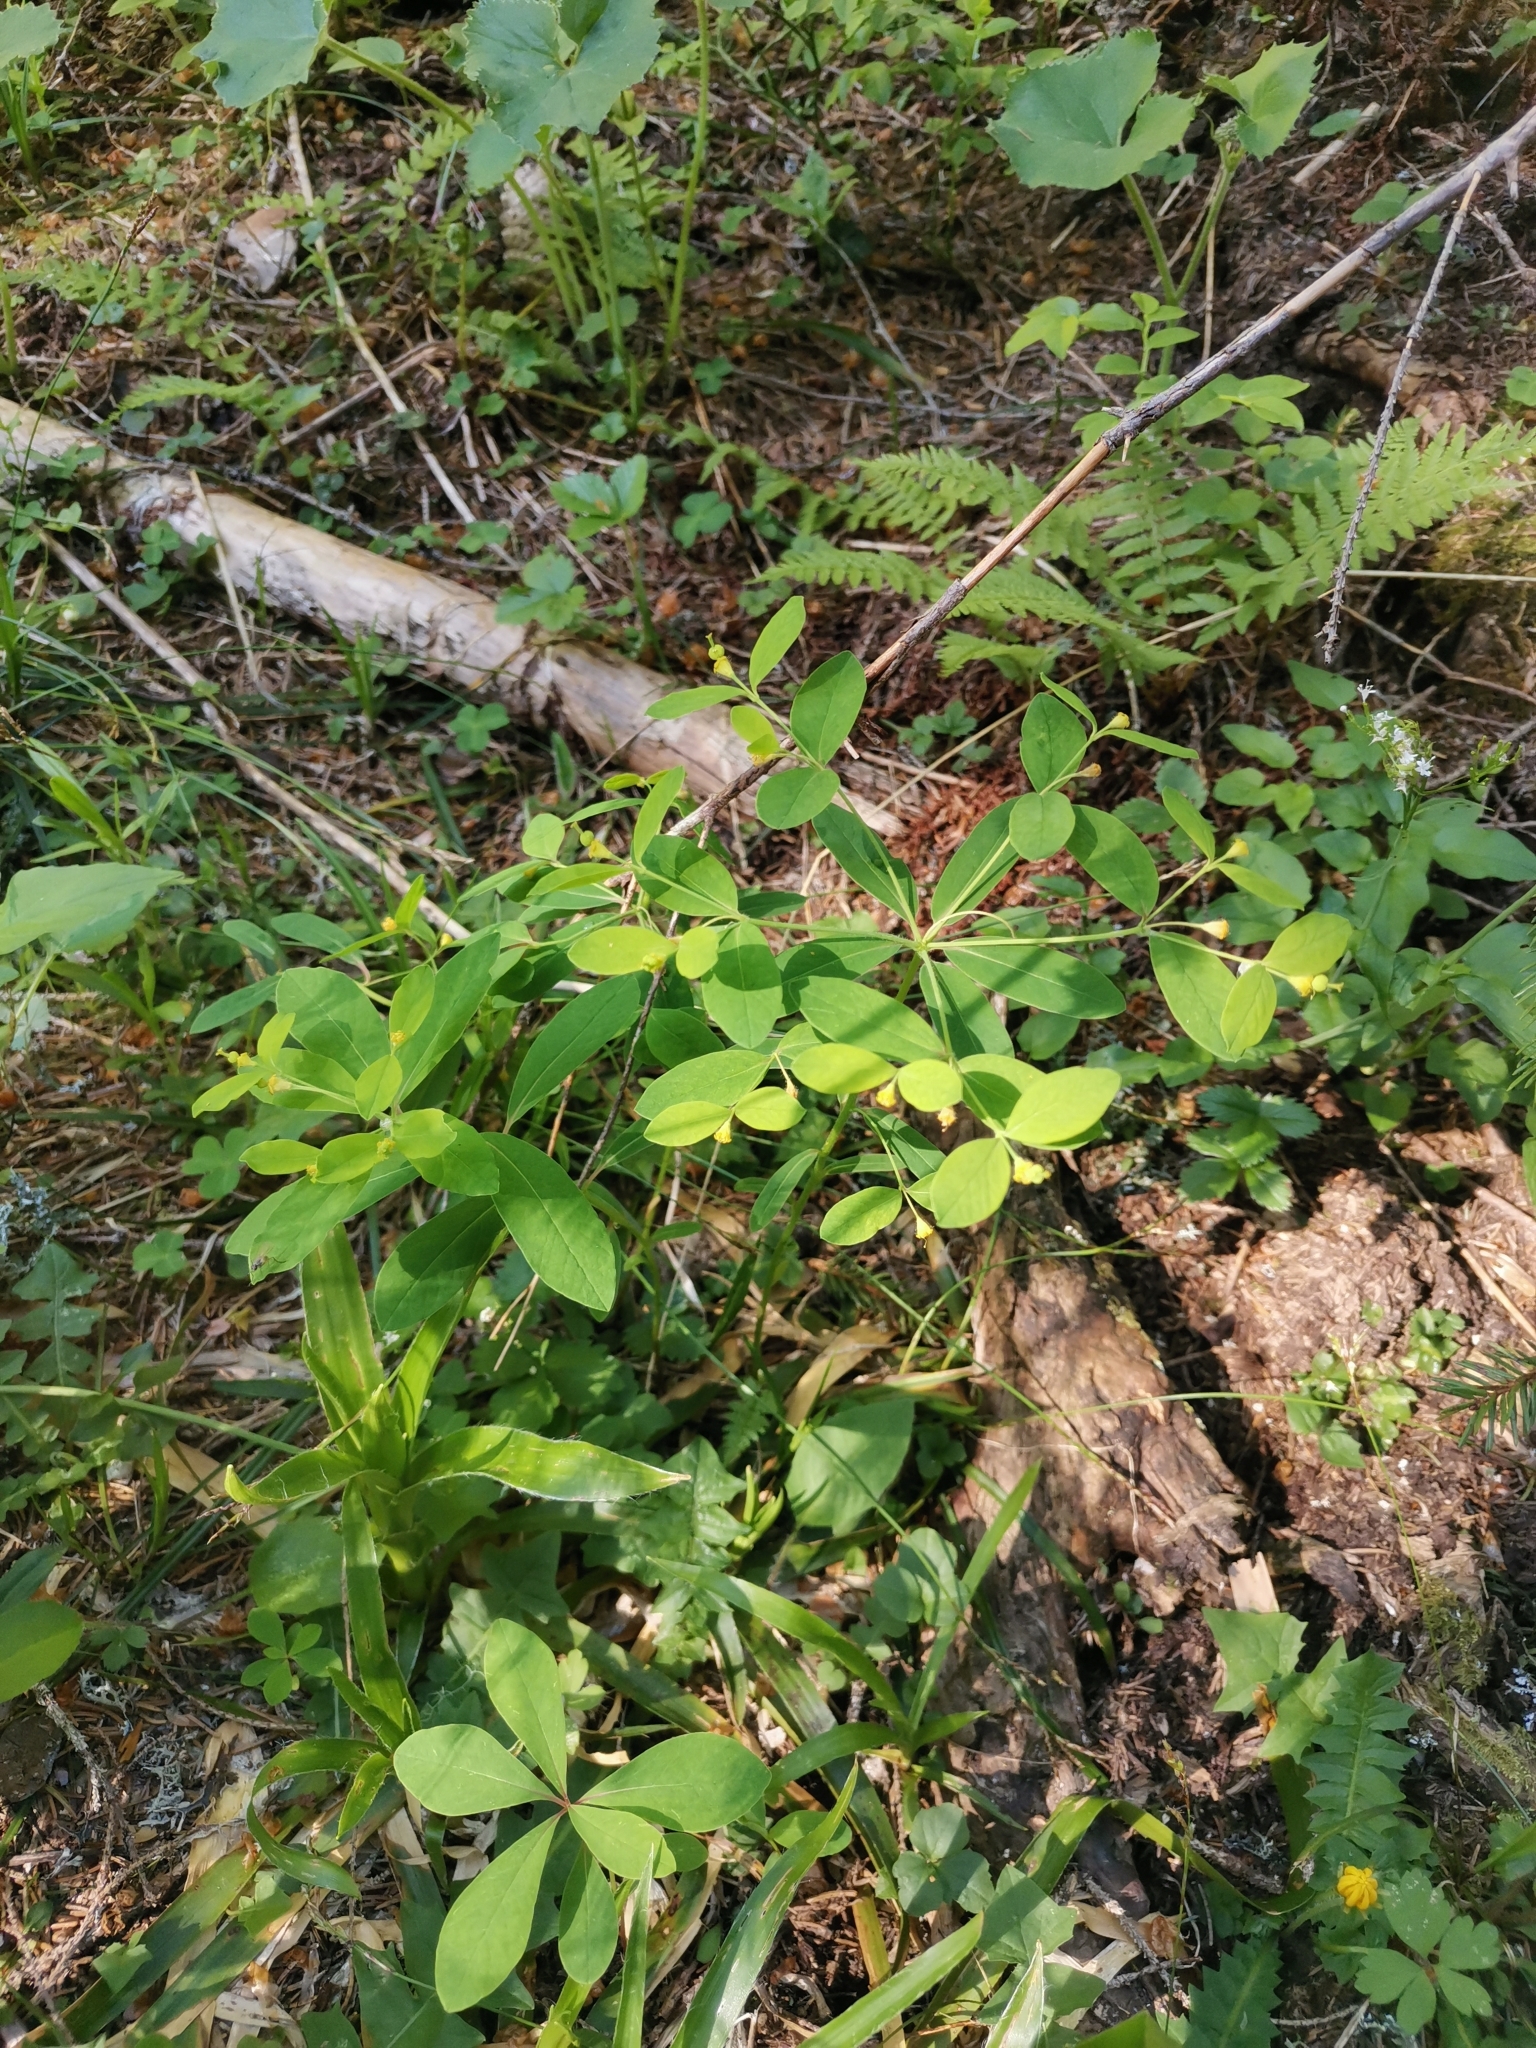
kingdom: Plantae
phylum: Tracheophyta
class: Magnoliopsida
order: Malpighiales
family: Euphorbiaceae
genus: Euphorbia
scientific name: Euphorbia carniolica
